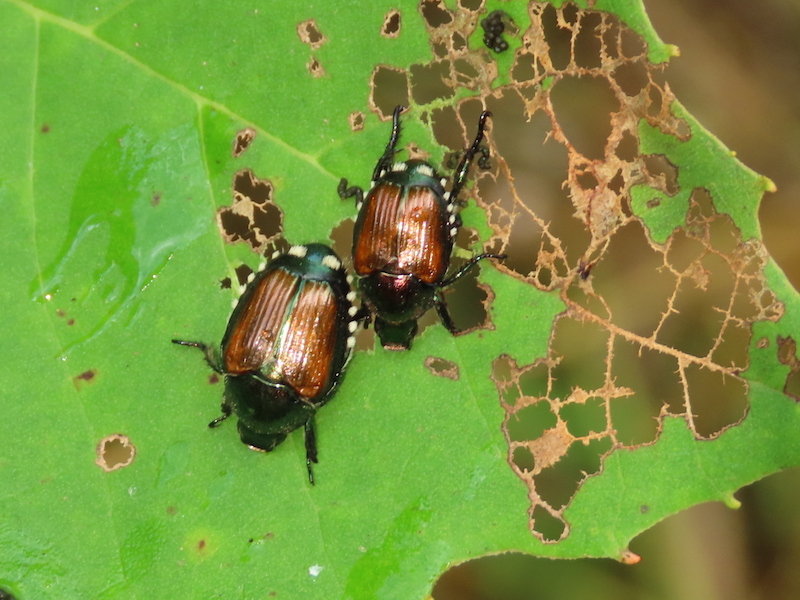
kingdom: Animalia
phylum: Arthropoda
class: Insecta
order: Coleoptera
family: Scarabaeidae
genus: Popillia
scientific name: Popillia japonica
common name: Japanese beetle
